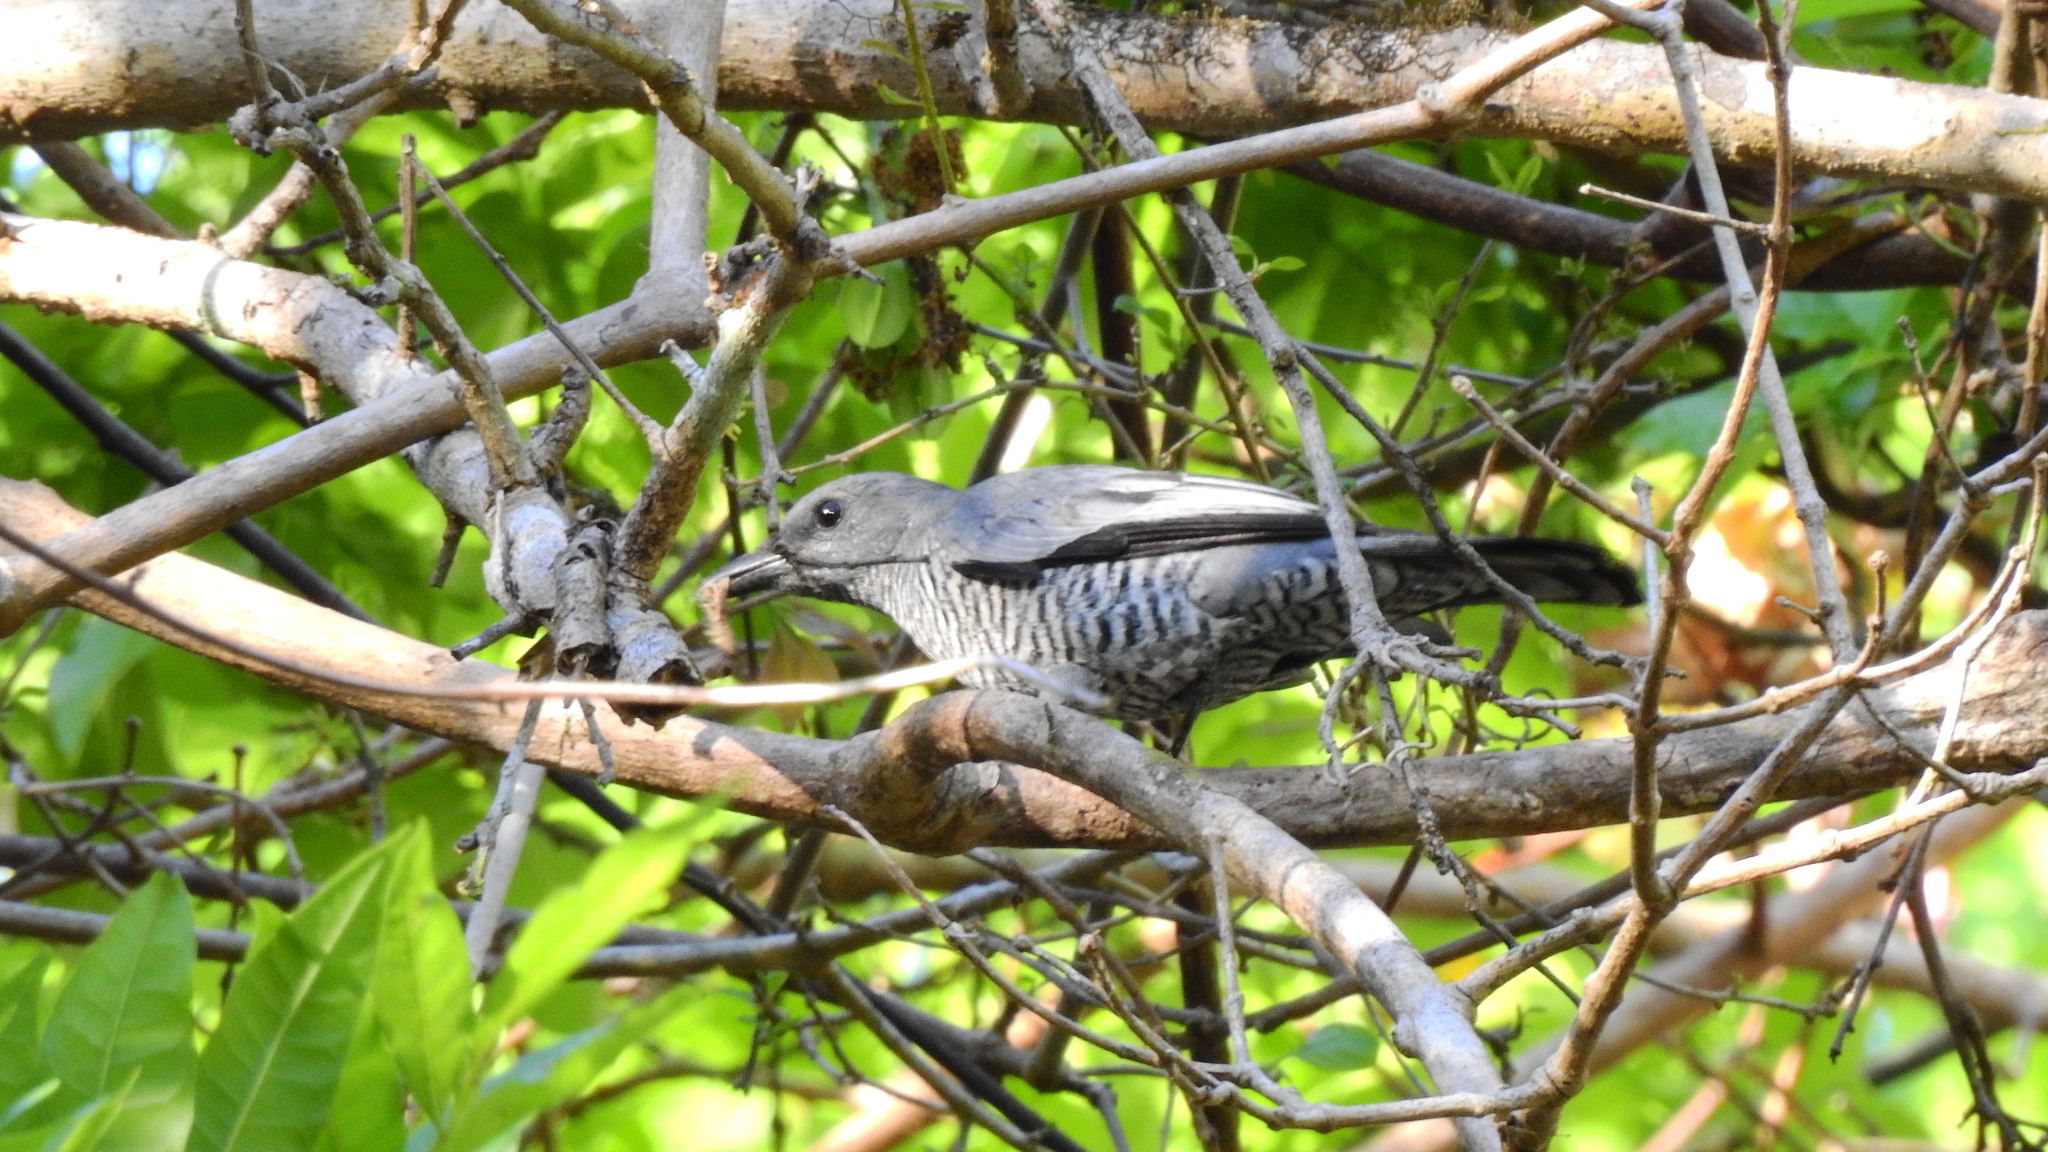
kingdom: Animalia
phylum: Chordata
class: Aves
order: Passeriformes
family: Campephagidae
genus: Coracina
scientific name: Coracina dohertyi
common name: Pale-shouldered cicadabird
